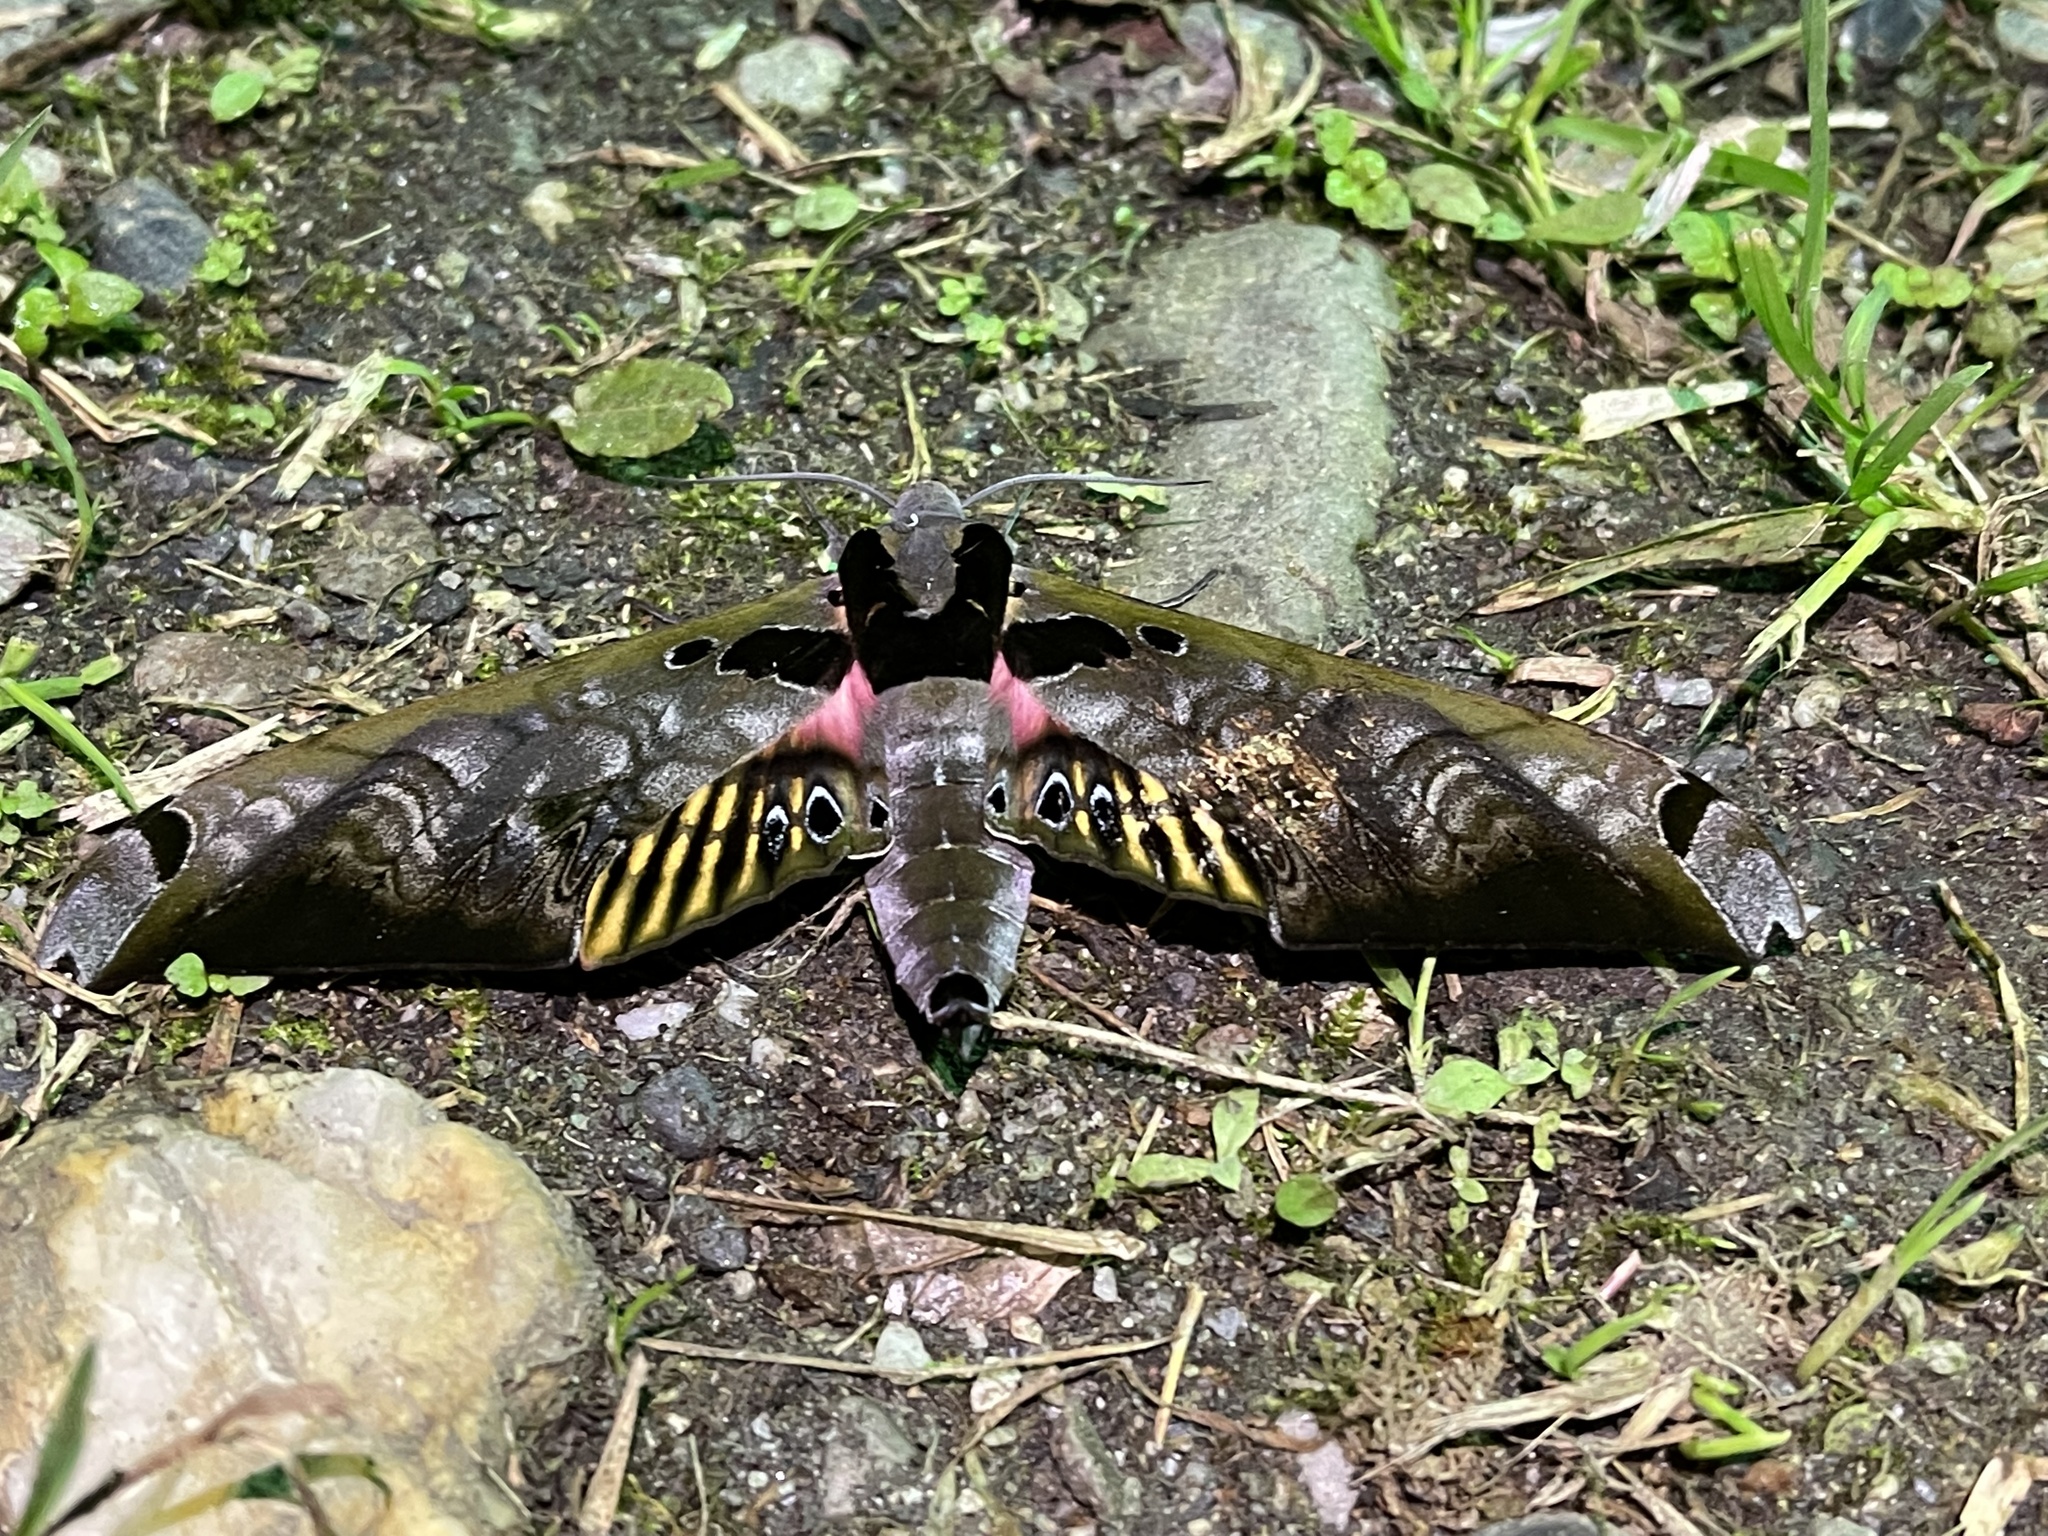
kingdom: Animalia
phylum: Arthropoda
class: Insecta
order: Lepidoptera
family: Sphingidae
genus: Adhemarius
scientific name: Adhemarius sexoculata
